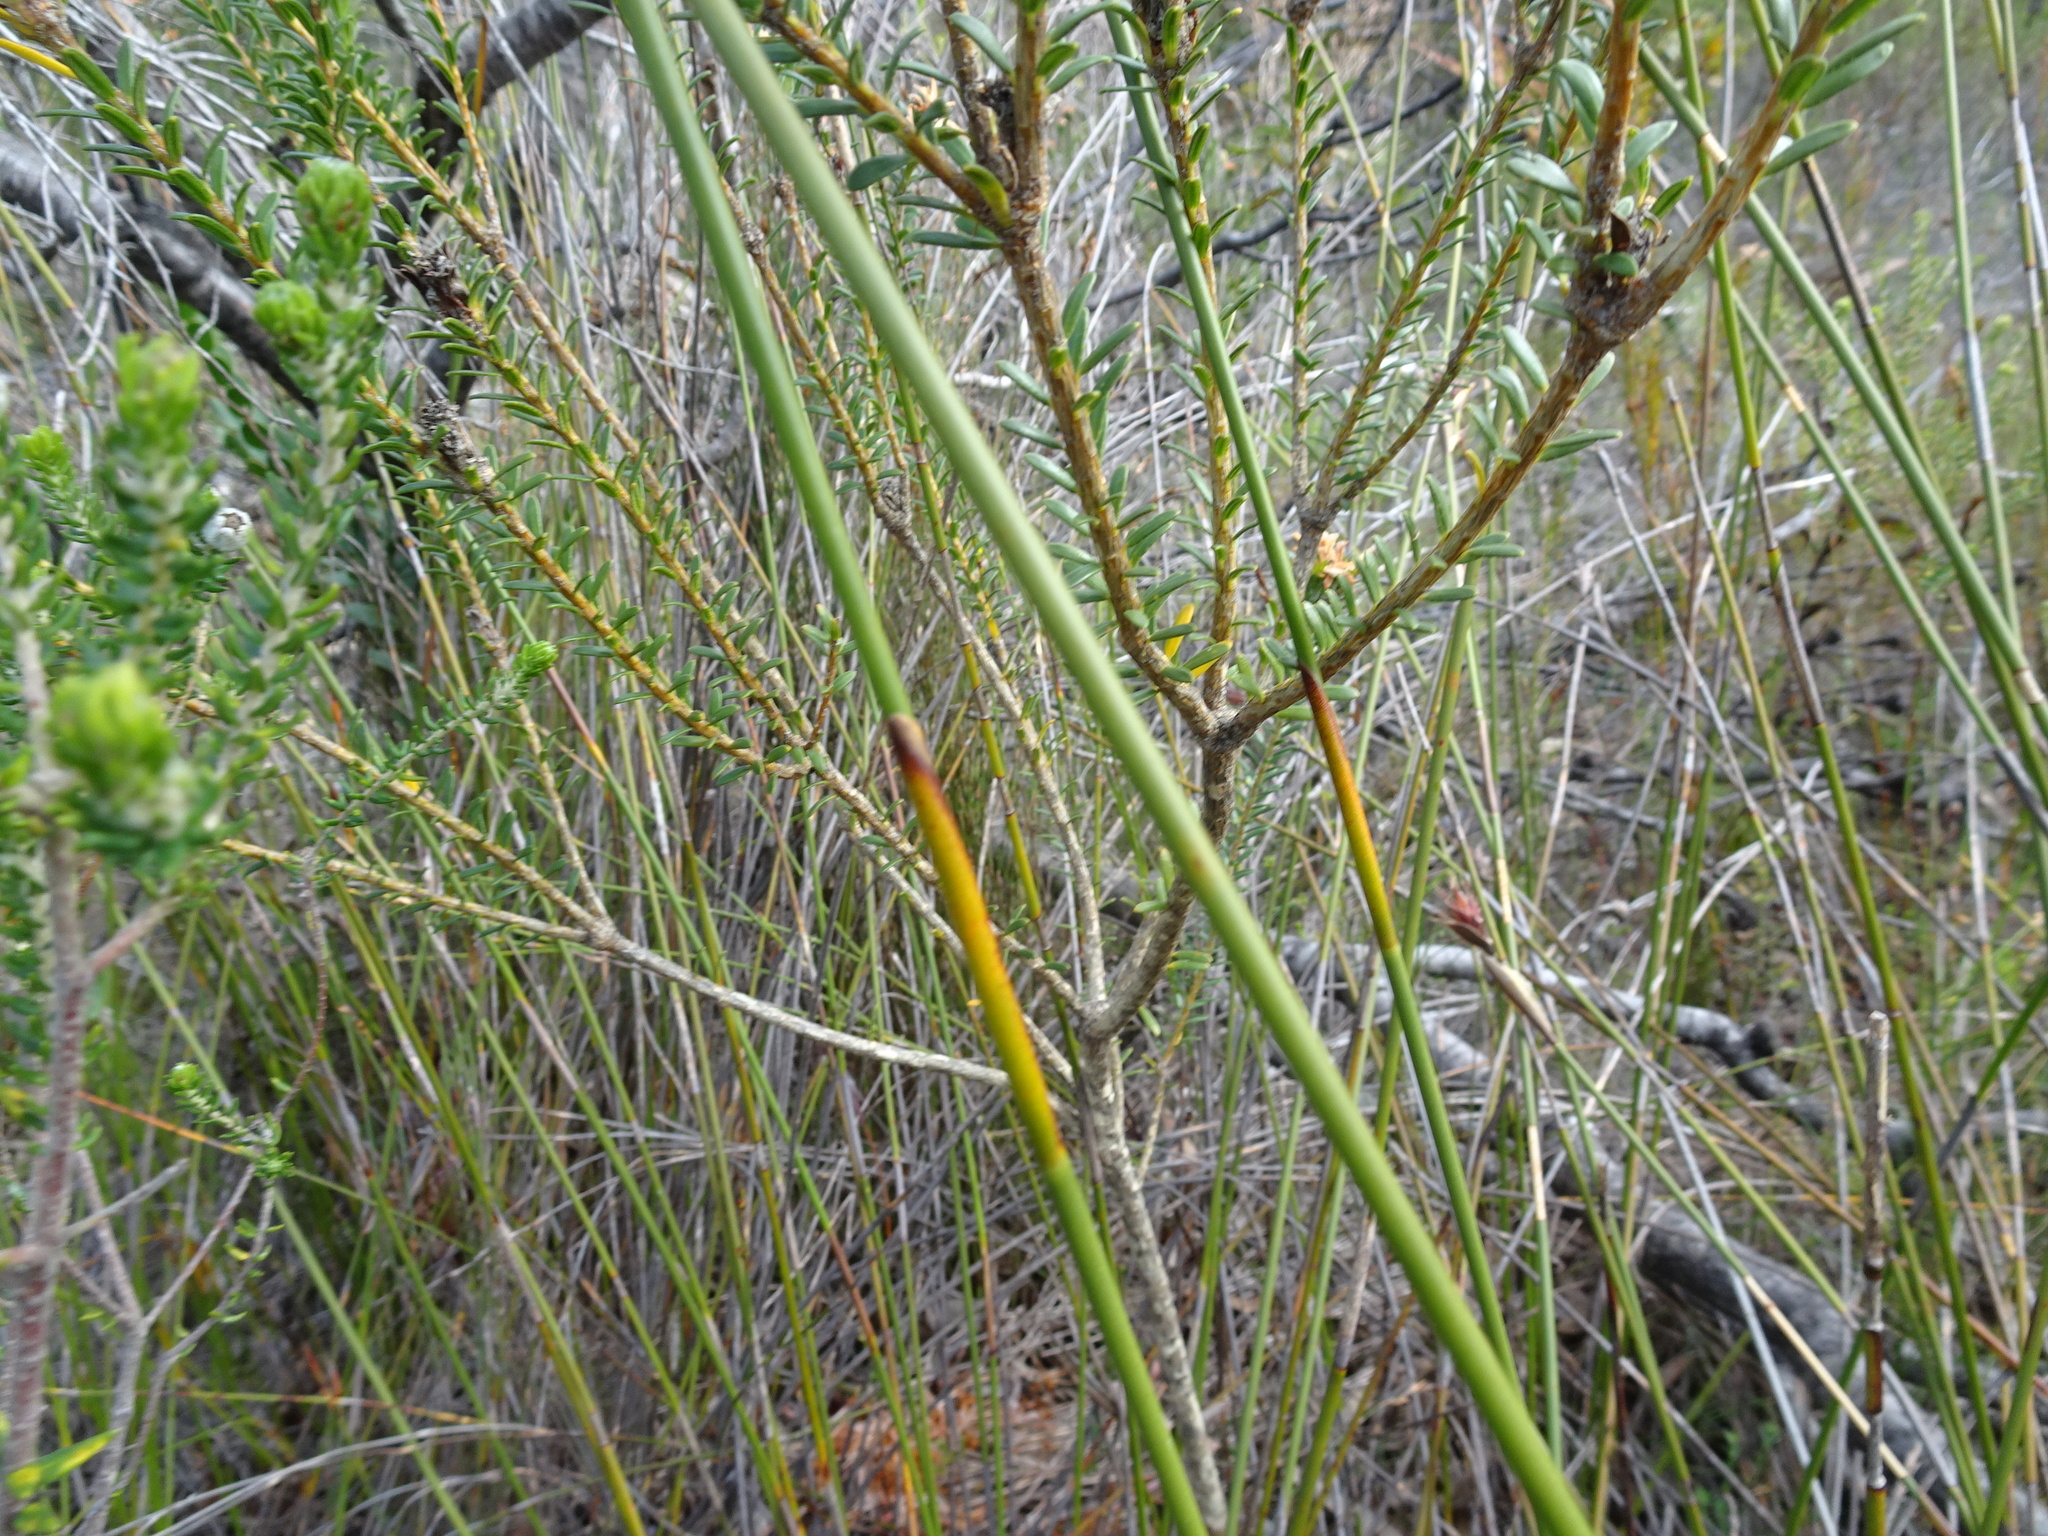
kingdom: Plantae
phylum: Tracheophyta
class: Liliopsida
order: Poales
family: Restionaceae
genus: Hypodiscus
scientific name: Hypodiscus aristatus
